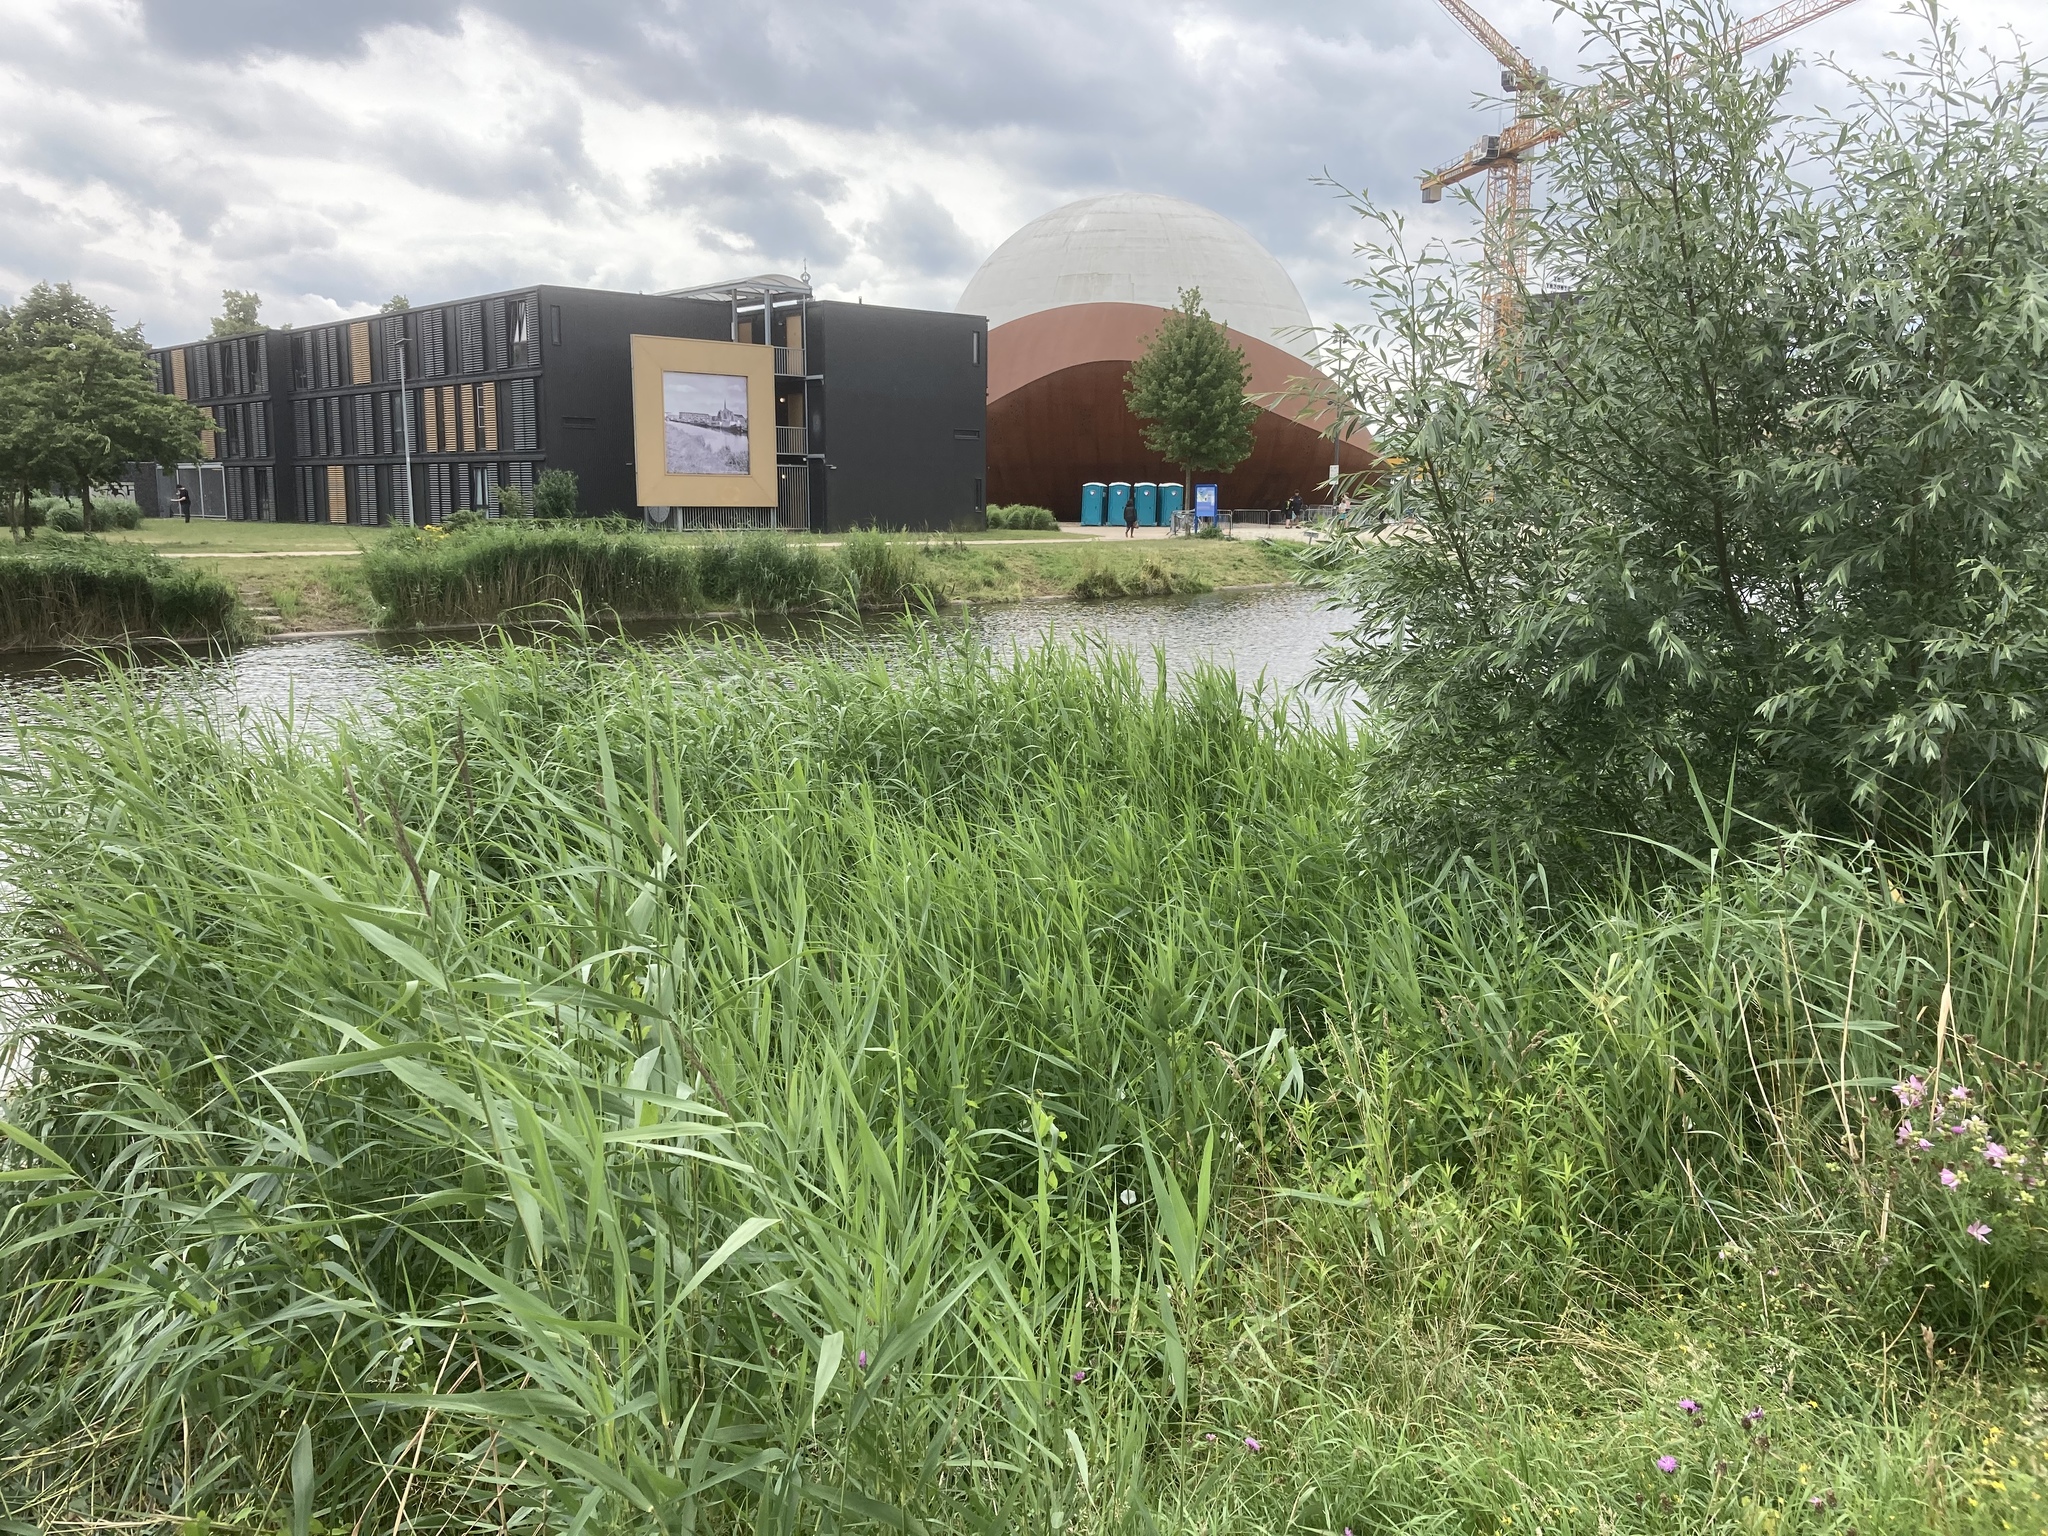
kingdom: Plantae
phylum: Tracheophyta
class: Liliopsida
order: Poales
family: Poaceae
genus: Phragmites
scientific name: Phragmites australis
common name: Common reed
